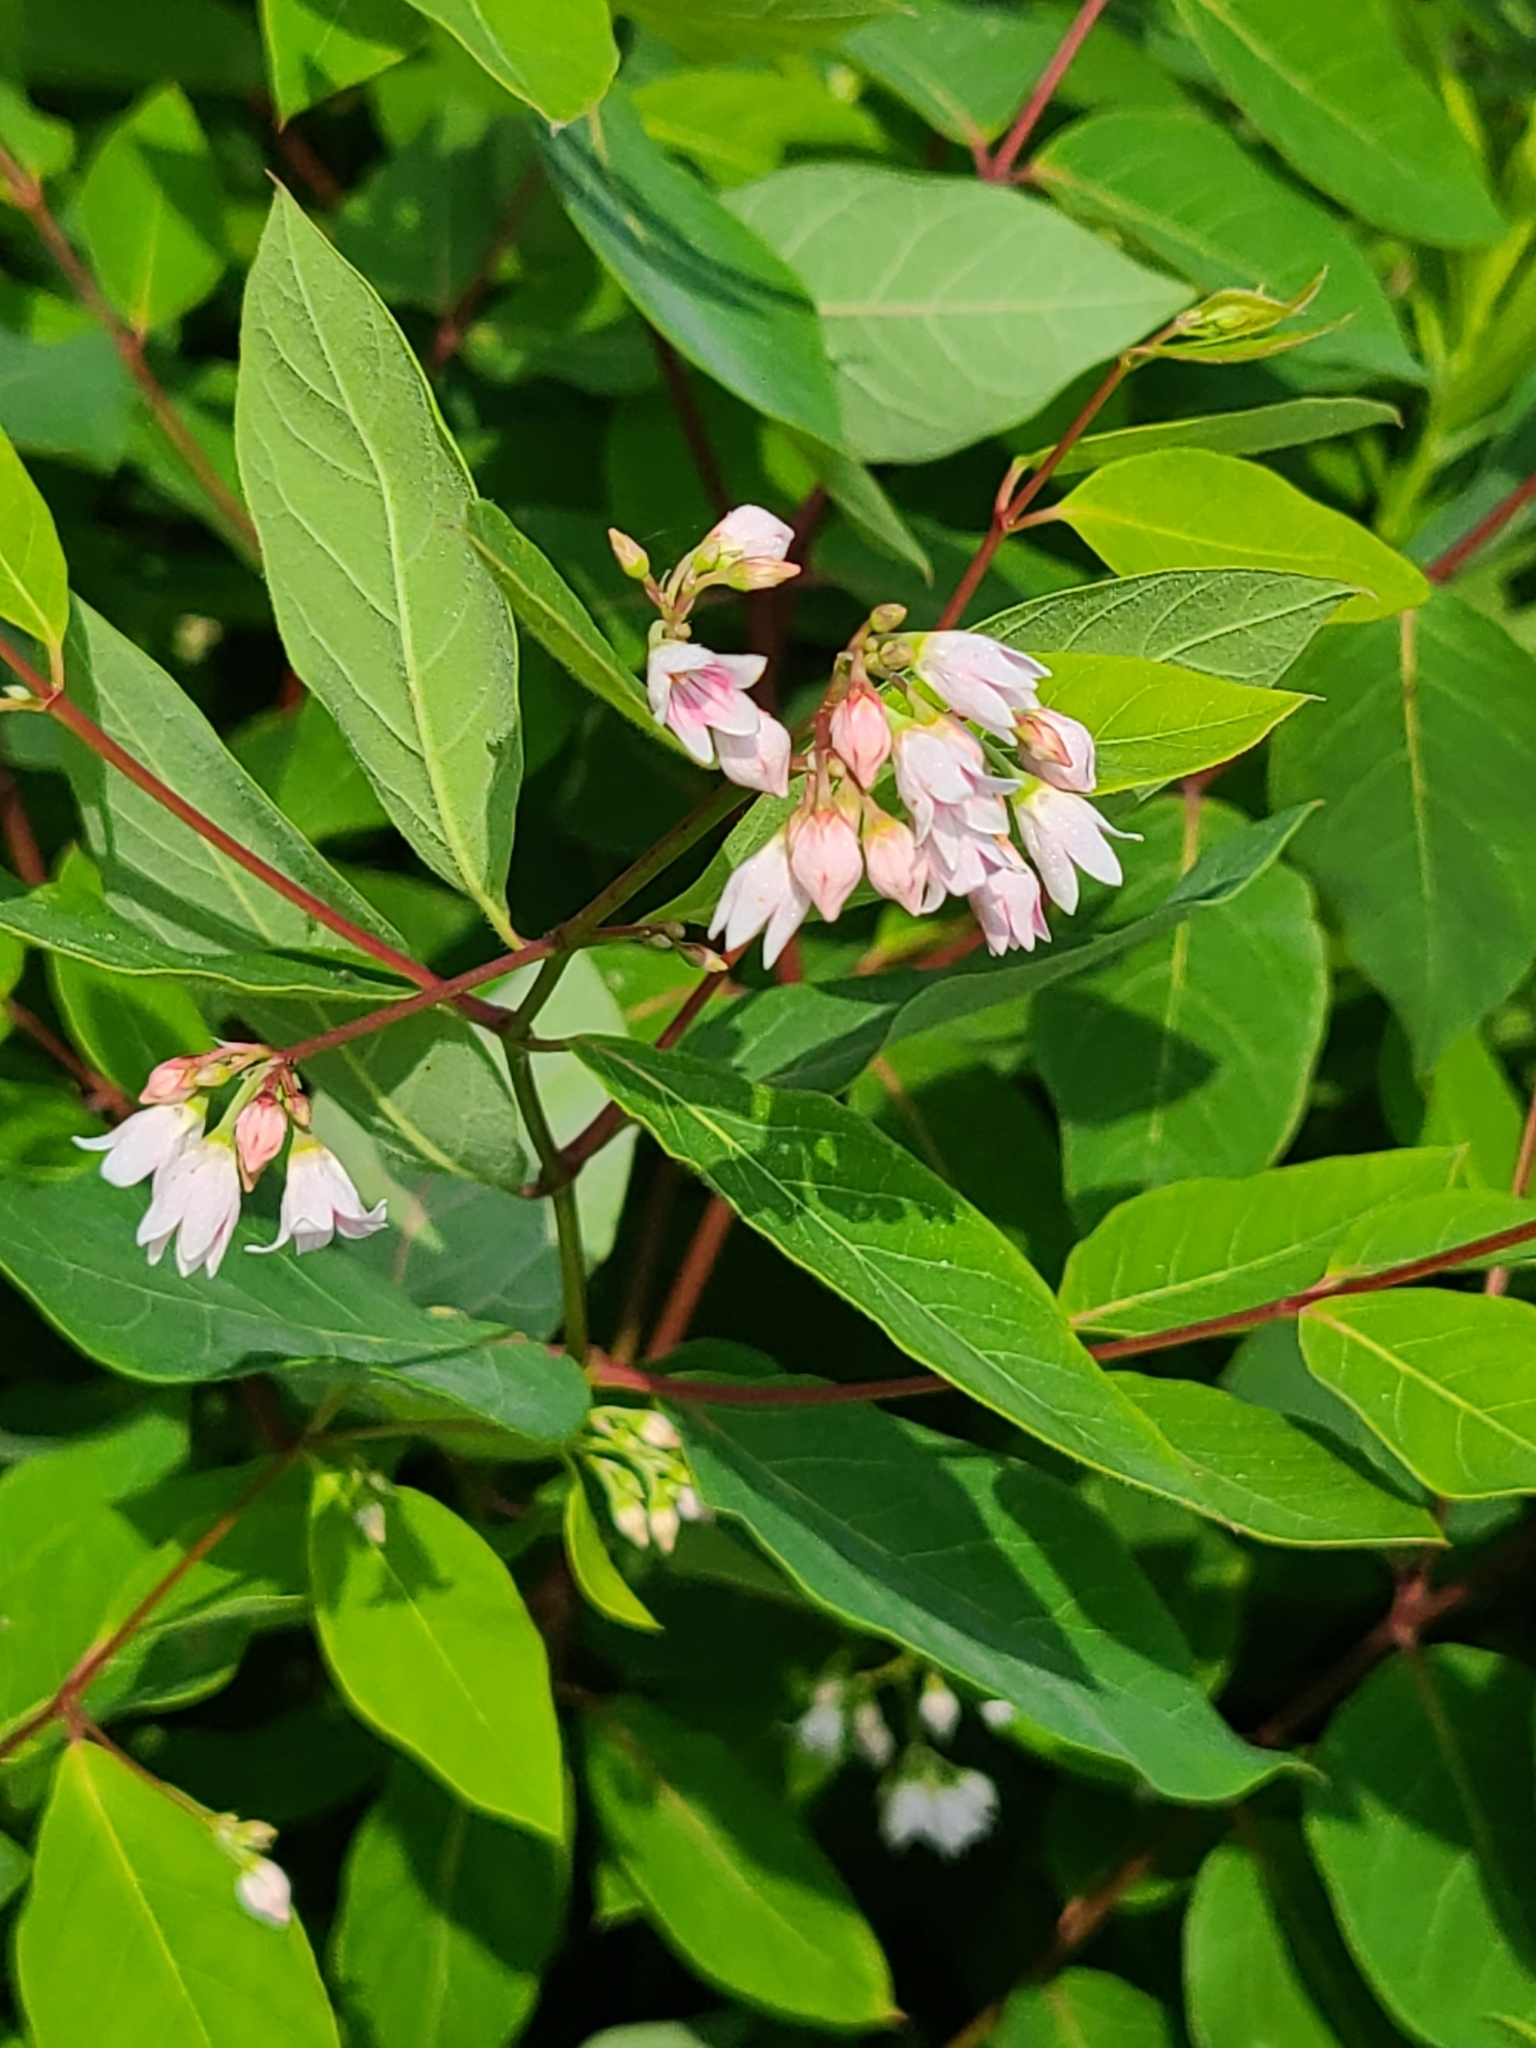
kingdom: Plantae
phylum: Tracheophyta
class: Magnoliopsida
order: Gentianales
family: Apocynaceae
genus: Apocynum
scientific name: Apocynum androsaemifolium
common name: Spreading dogbane
